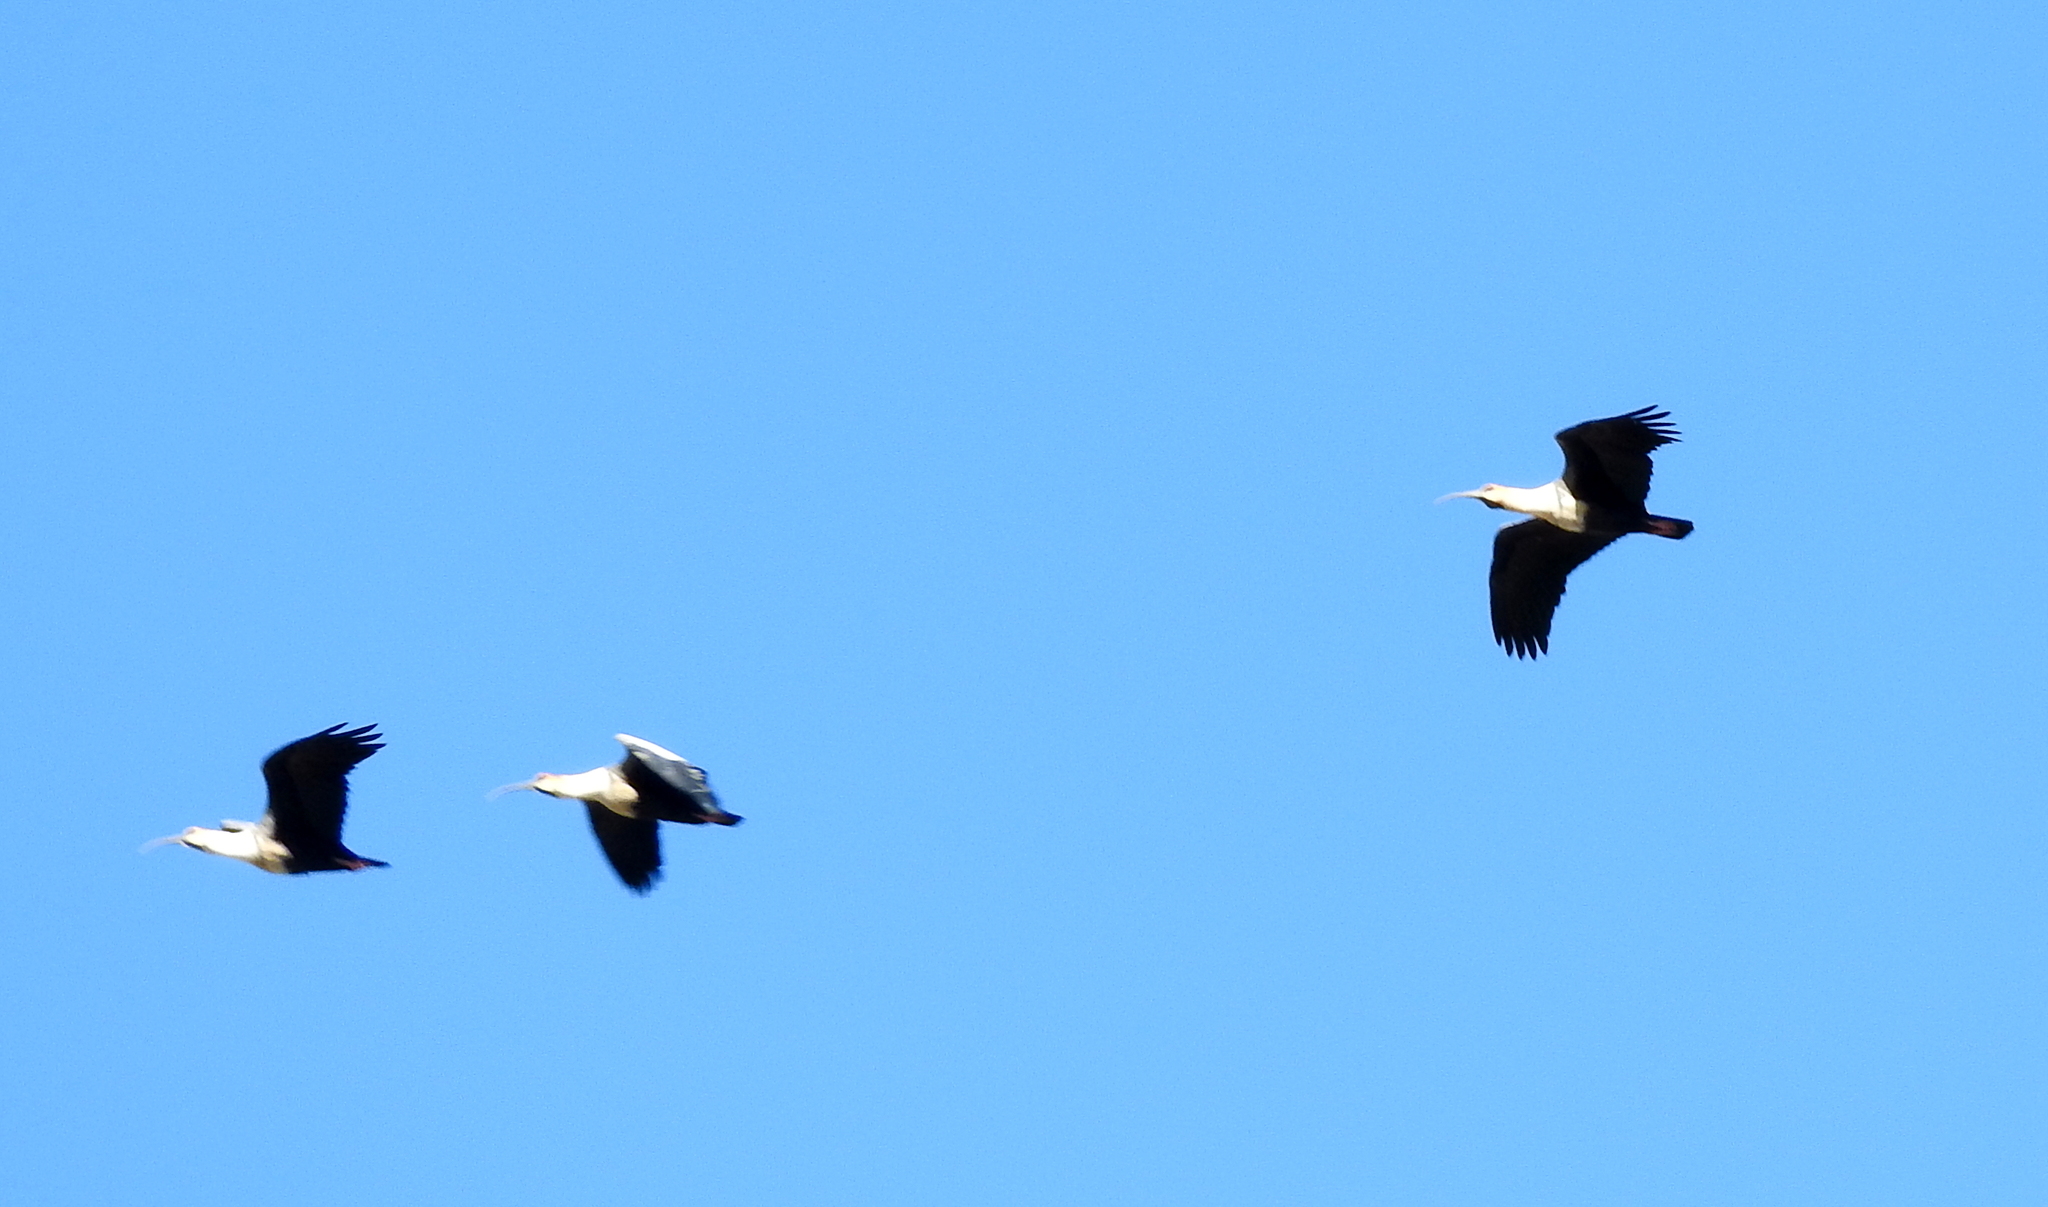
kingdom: Animalia
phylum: Chordata
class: Aves
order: Pelecaniformes
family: Threskiornithidae
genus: Theristicus
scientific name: Theristicus melanopis
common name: Black-faced ibis
